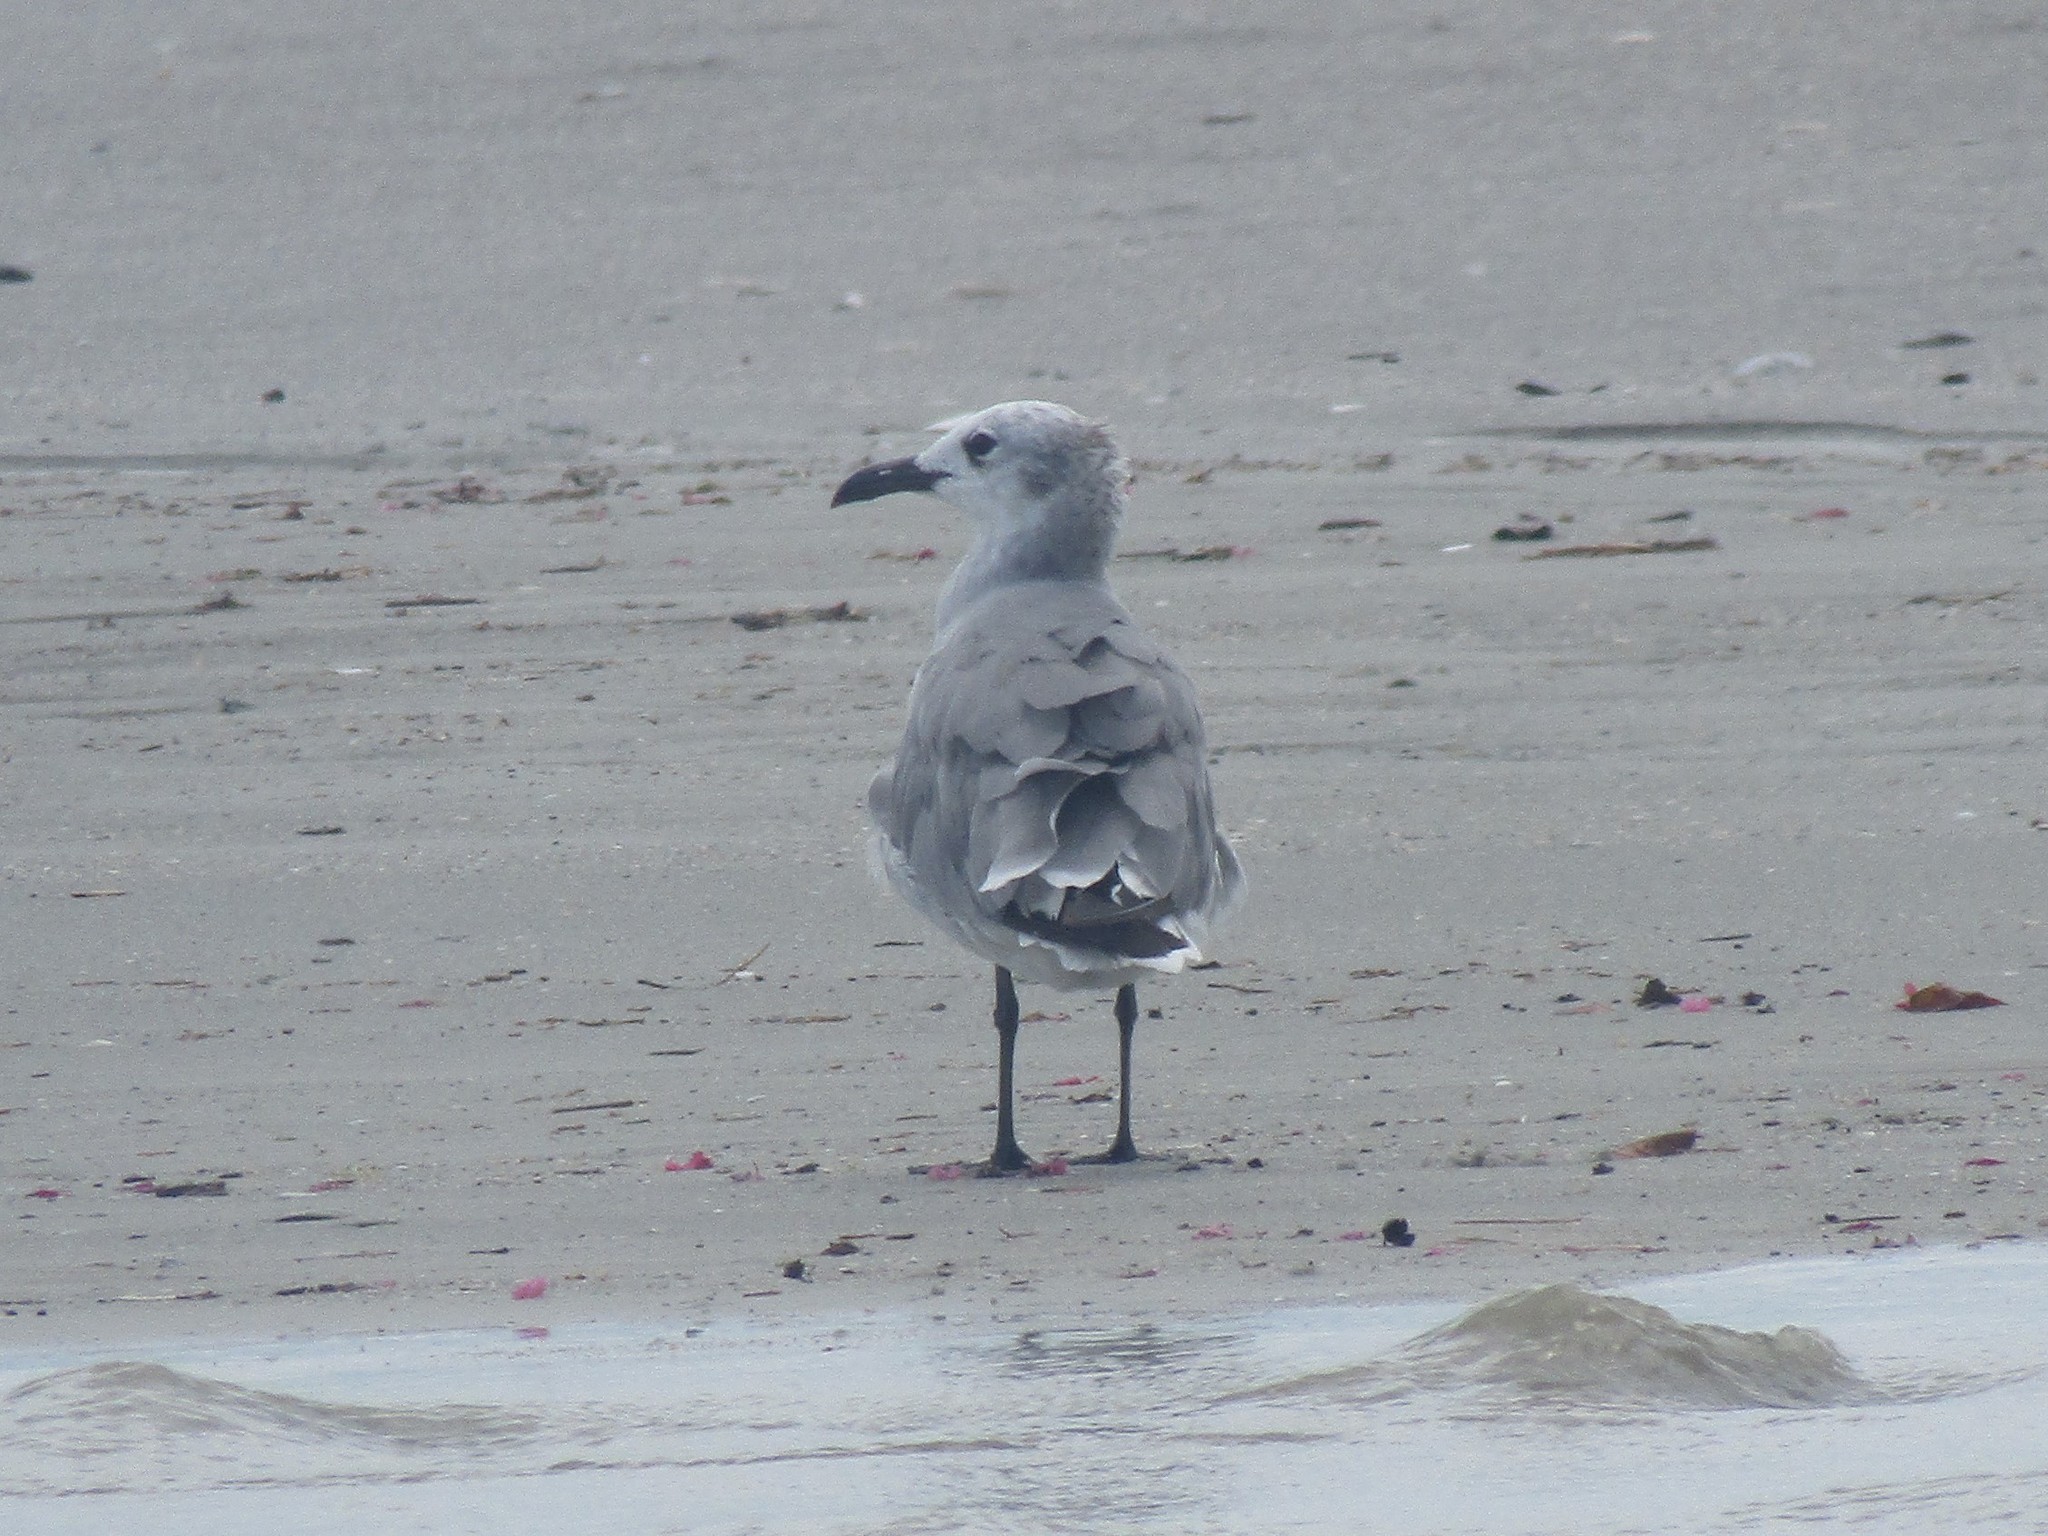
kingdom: Animalia
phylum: Chordata
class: Aves
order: Charadriiformes
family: Laridae
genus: Leucophaeus
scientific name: Leucophaeus atricilla
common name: Laughing gull
